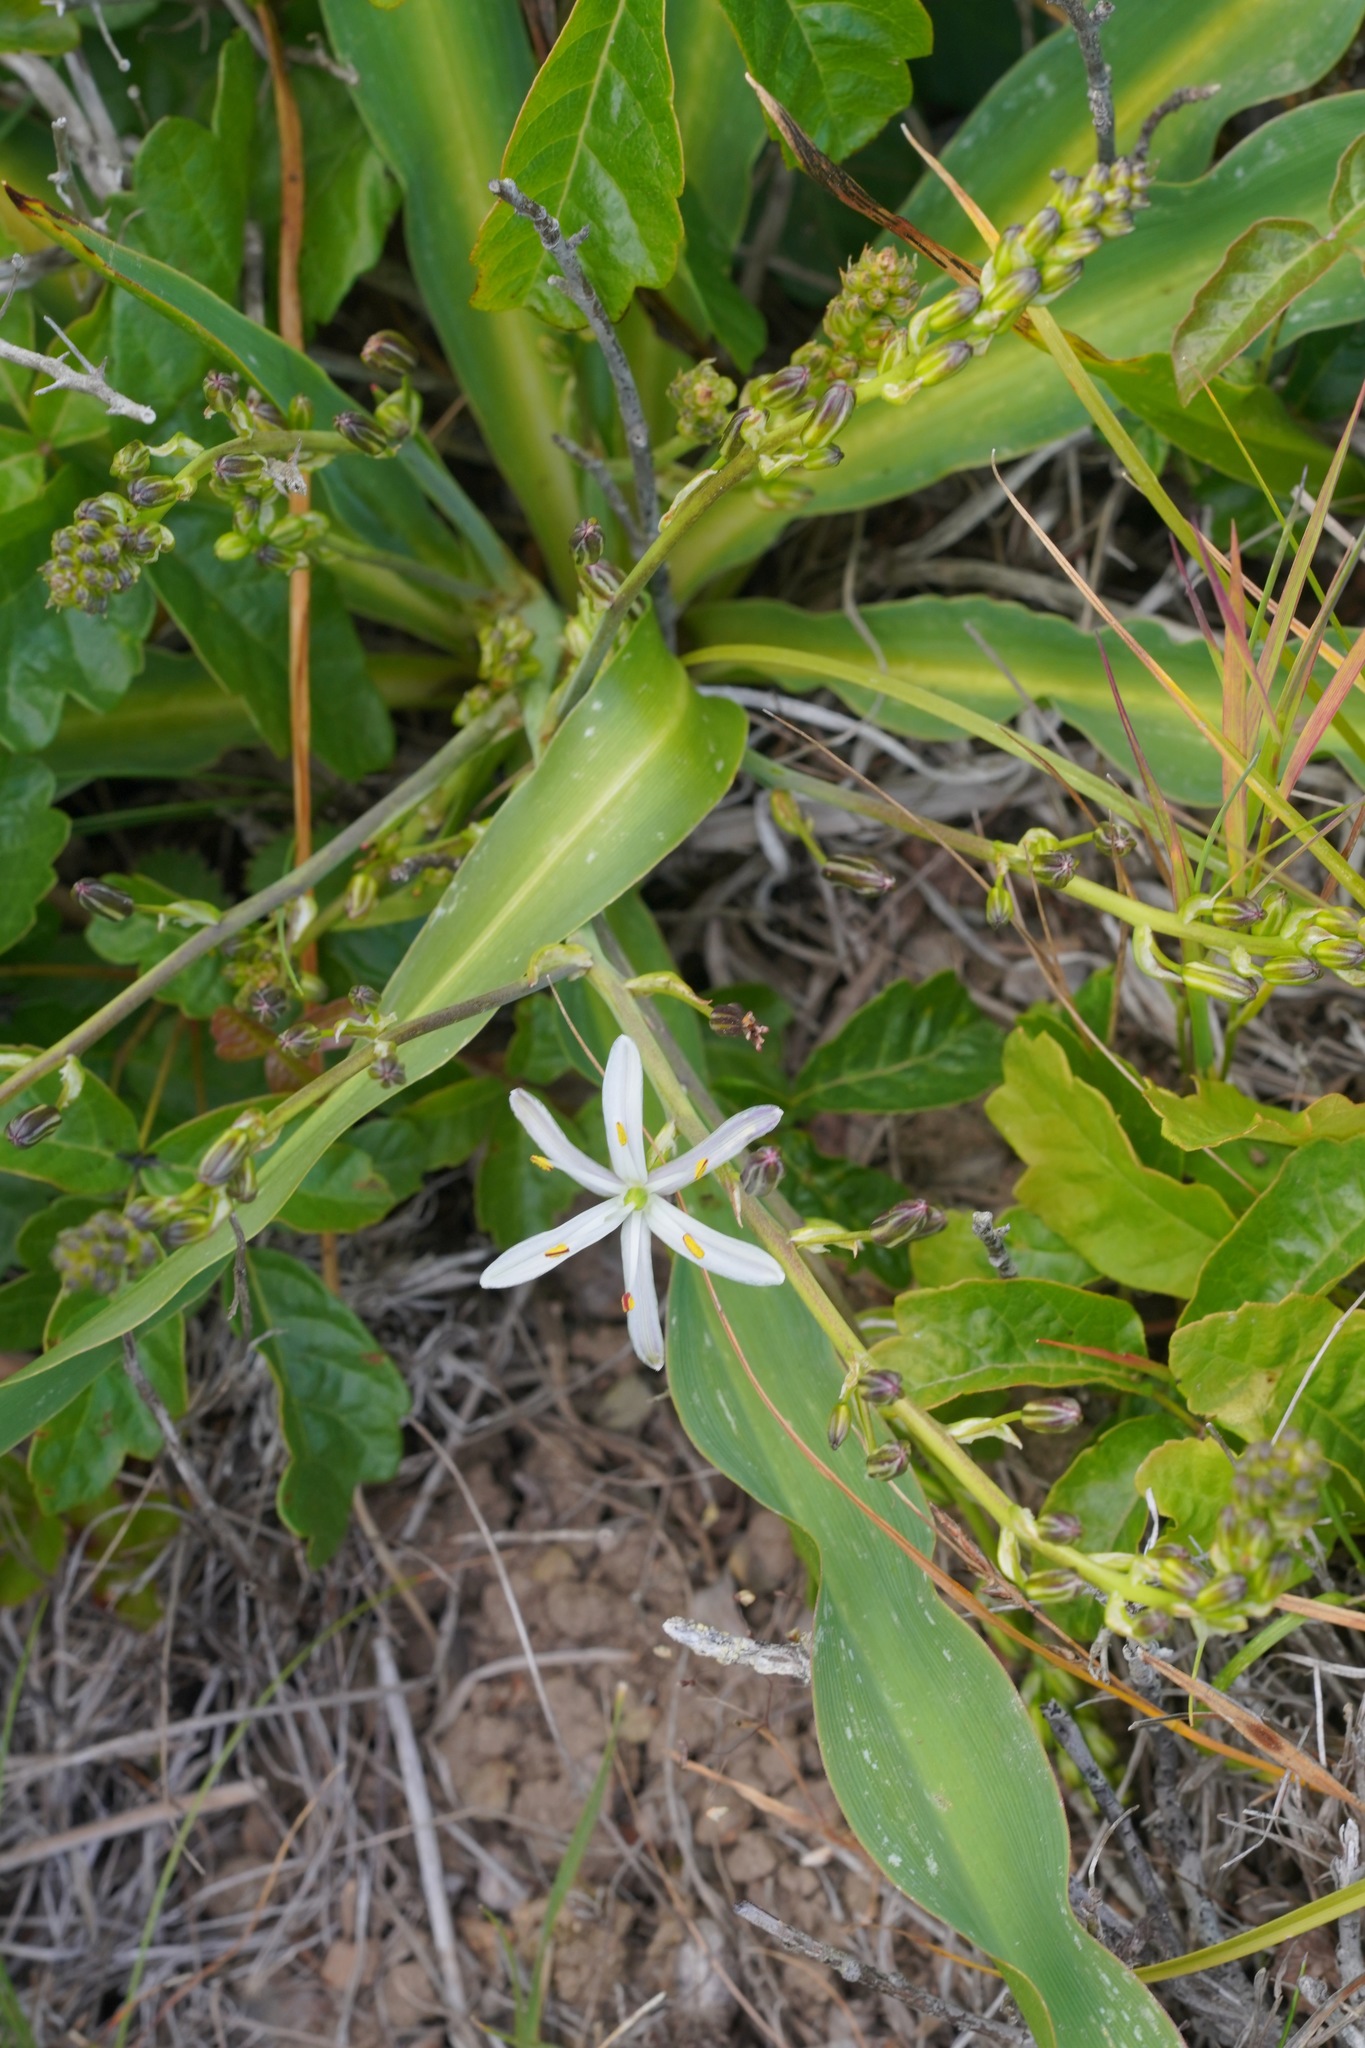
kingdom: Plantae
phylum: Tracheophyta
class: Liliopsida
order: Asparagales
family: Asparagaceae
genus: Chlorogalum
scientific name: Chlorogalum pomeridianum
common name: Amole
